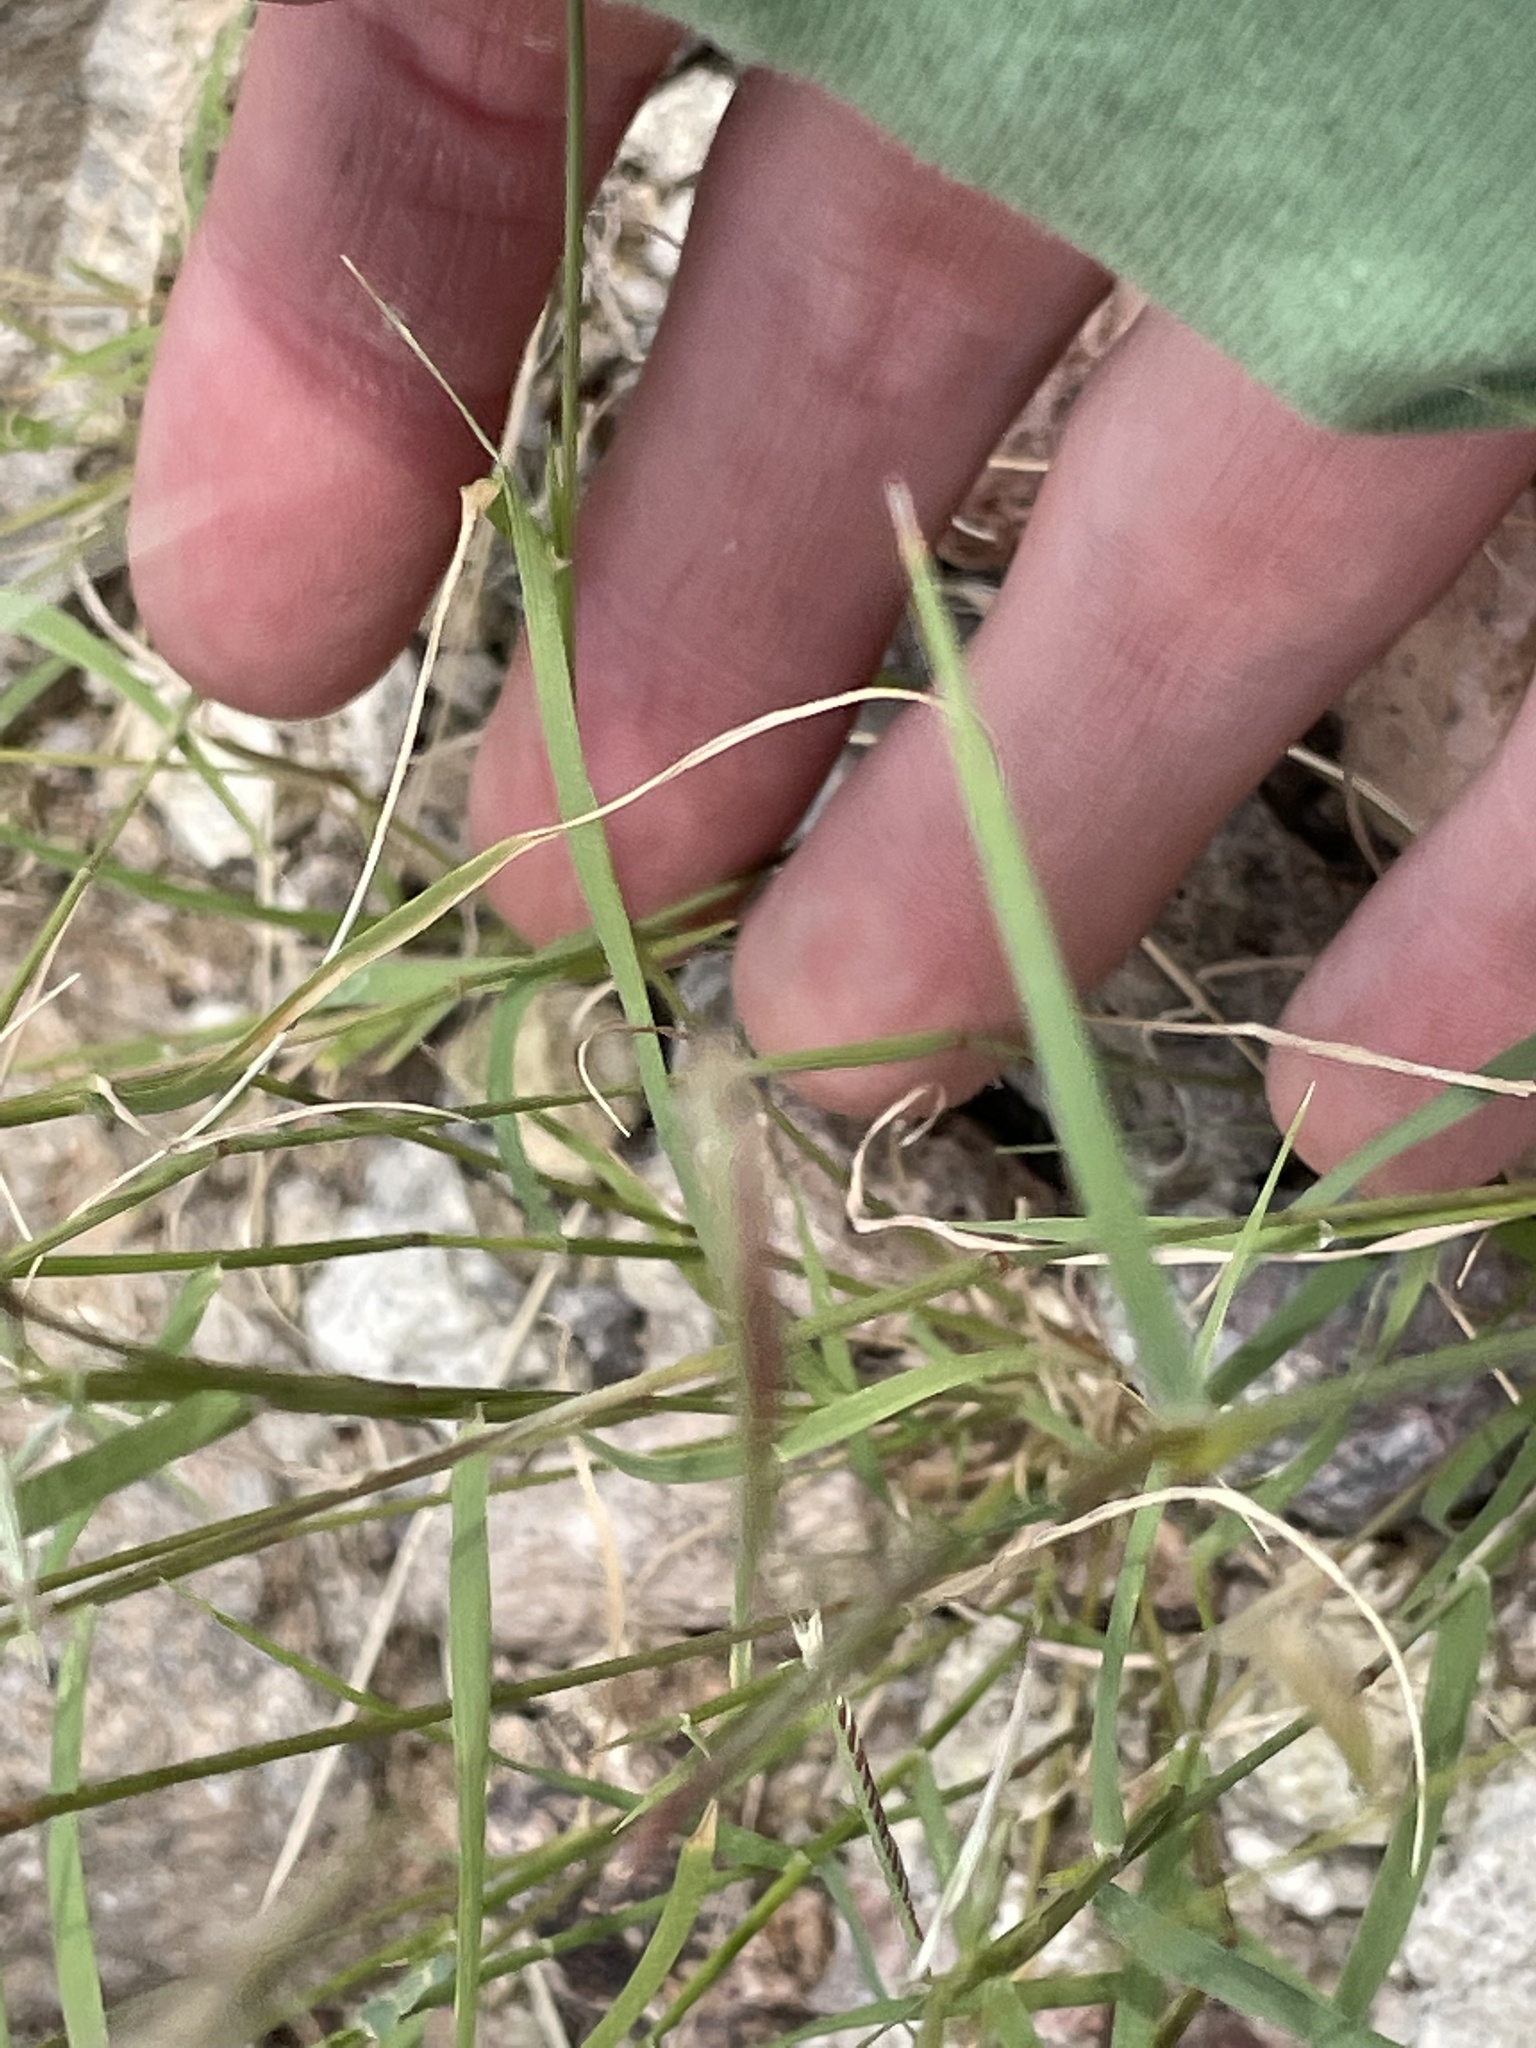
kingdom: Plantae
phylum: Tracheophyta
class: Liliopsida
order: Poales
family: Poaceae
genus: Bouteloua
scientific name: Bouteloua aristidoides
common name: Needle grama
